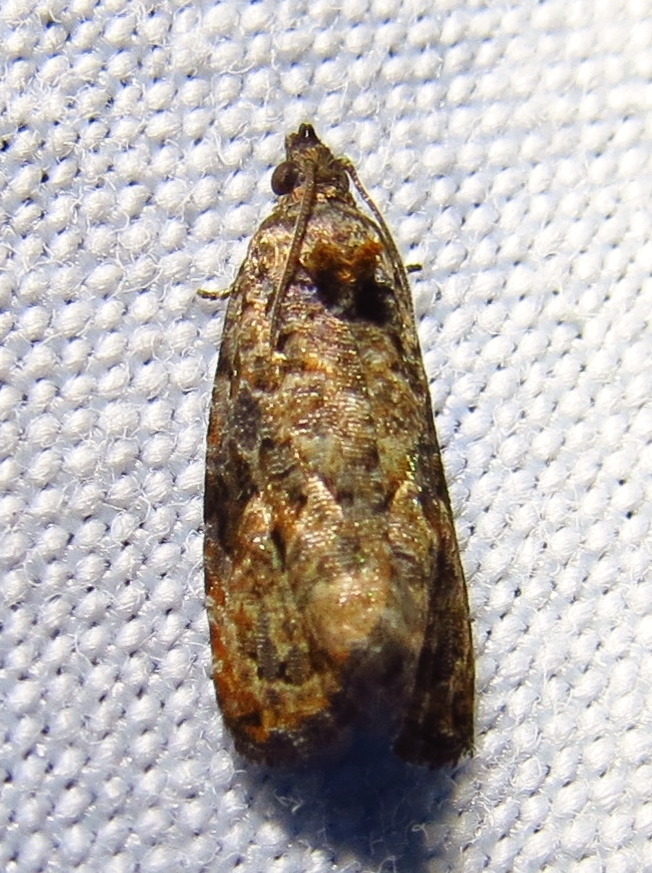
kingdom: Animalia
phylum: Arthropoda
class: Insecta
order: Lepidoptera
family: Tortricidae
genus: Endothenia
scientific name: Endothenia hebesana
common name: Verbena bud moth
